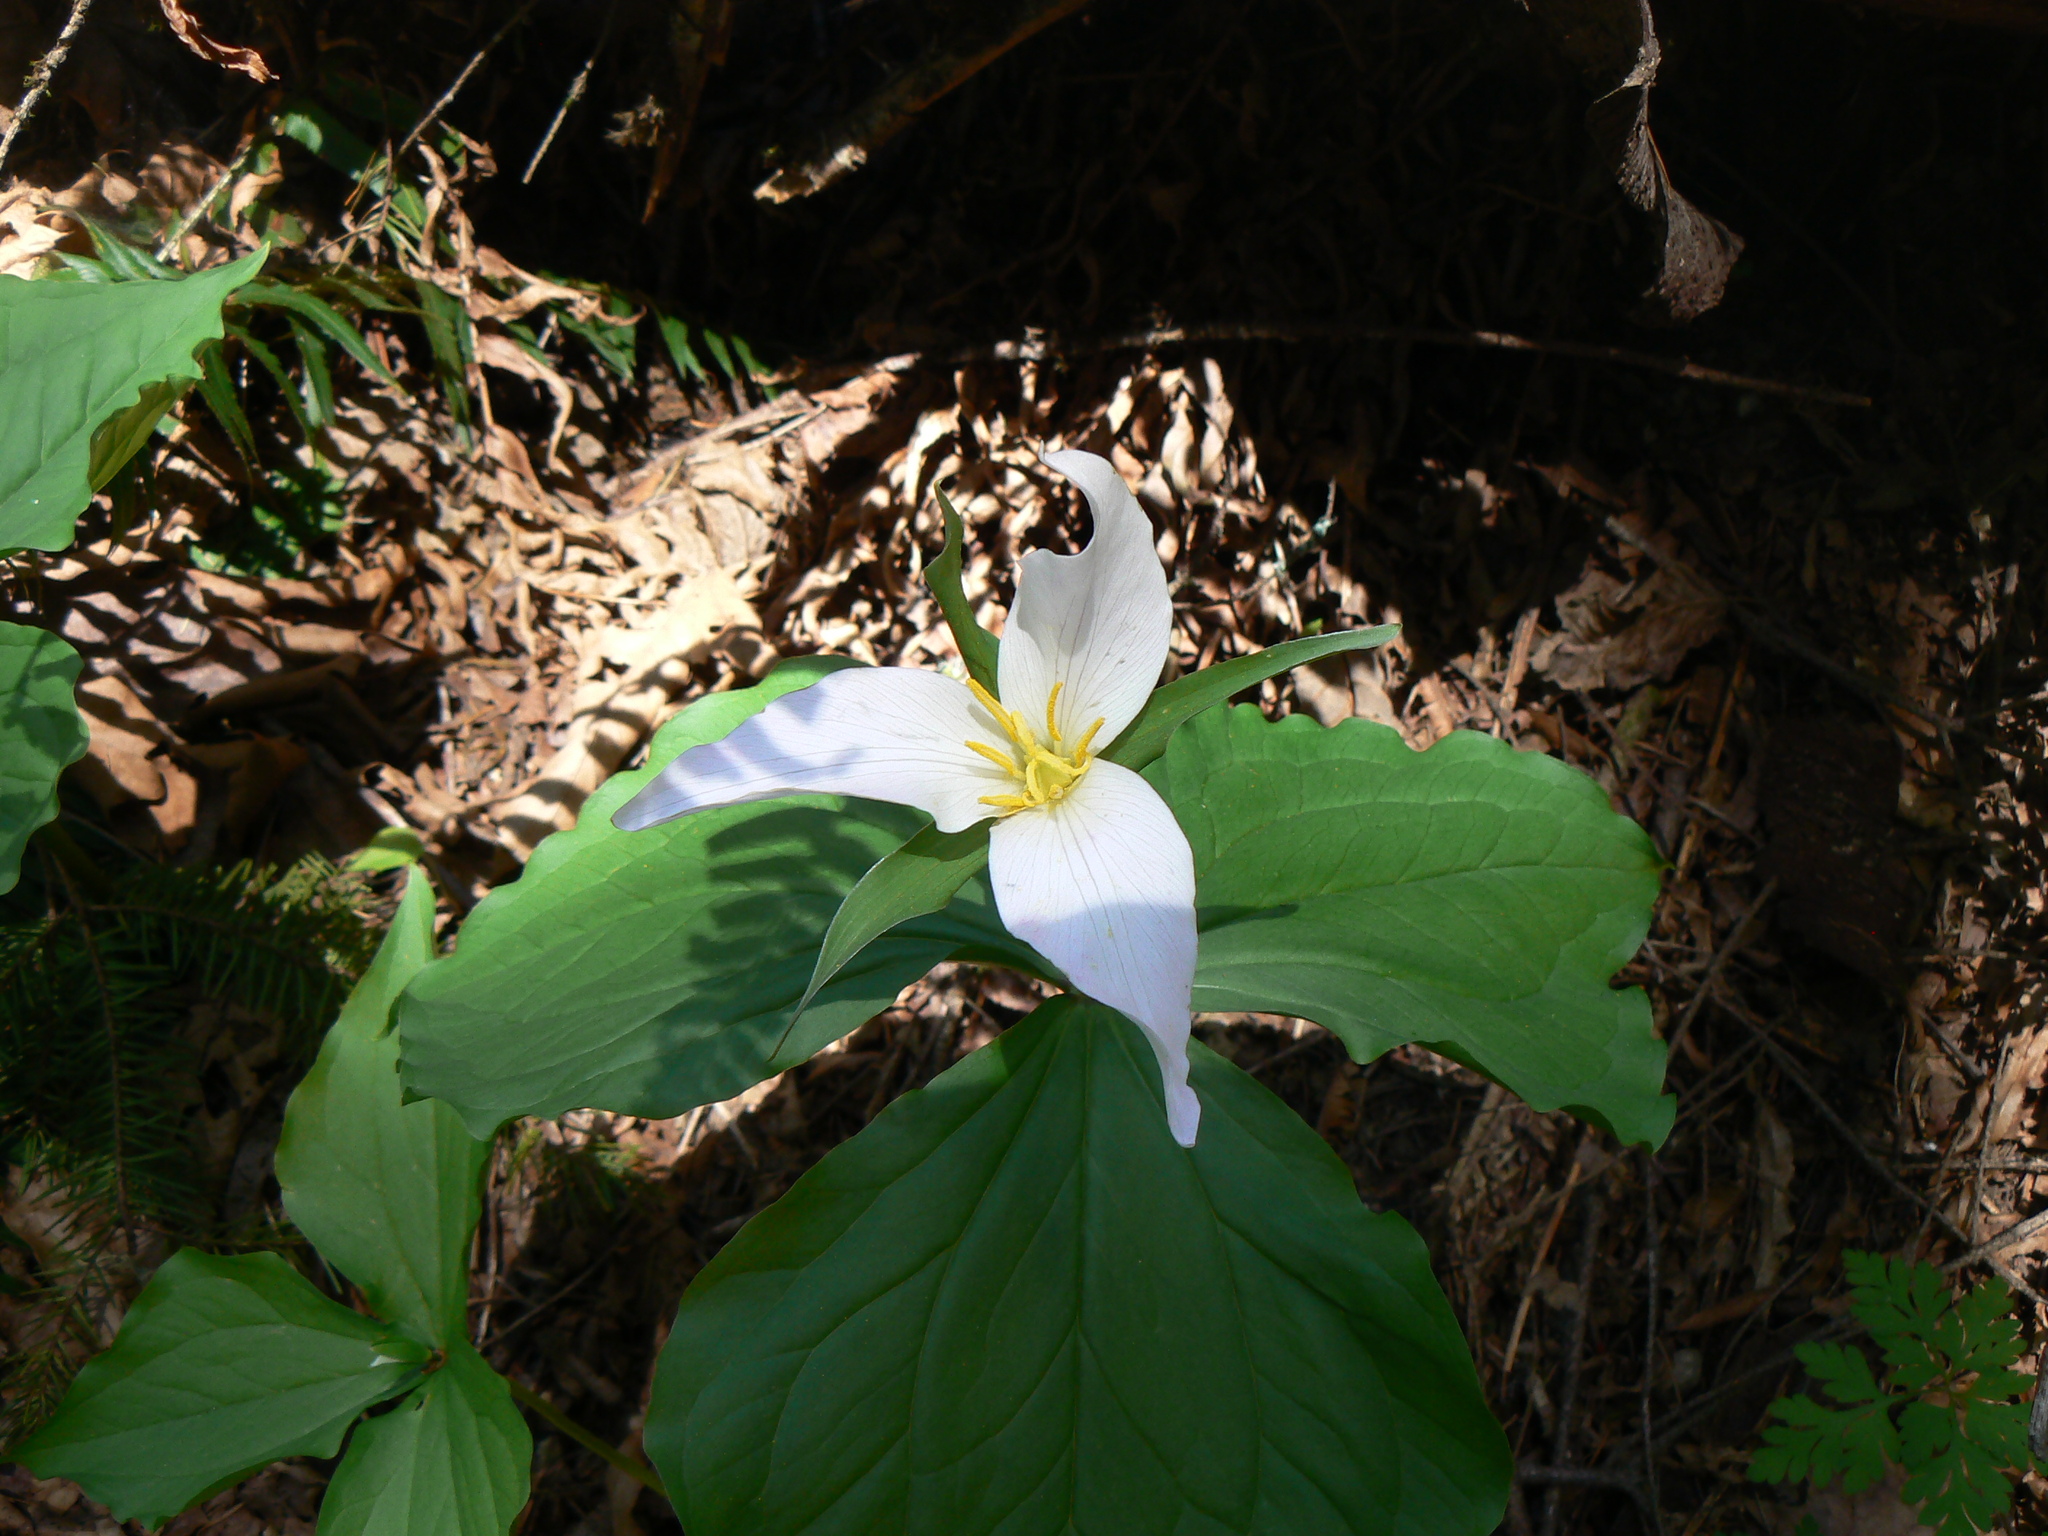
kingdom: Plantae
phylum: Tracheophyta
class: Liliopsida
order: Liliales
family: Melanthiaceae
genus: Trillium
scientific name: Trillium ovatum
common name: Pacific trillium
